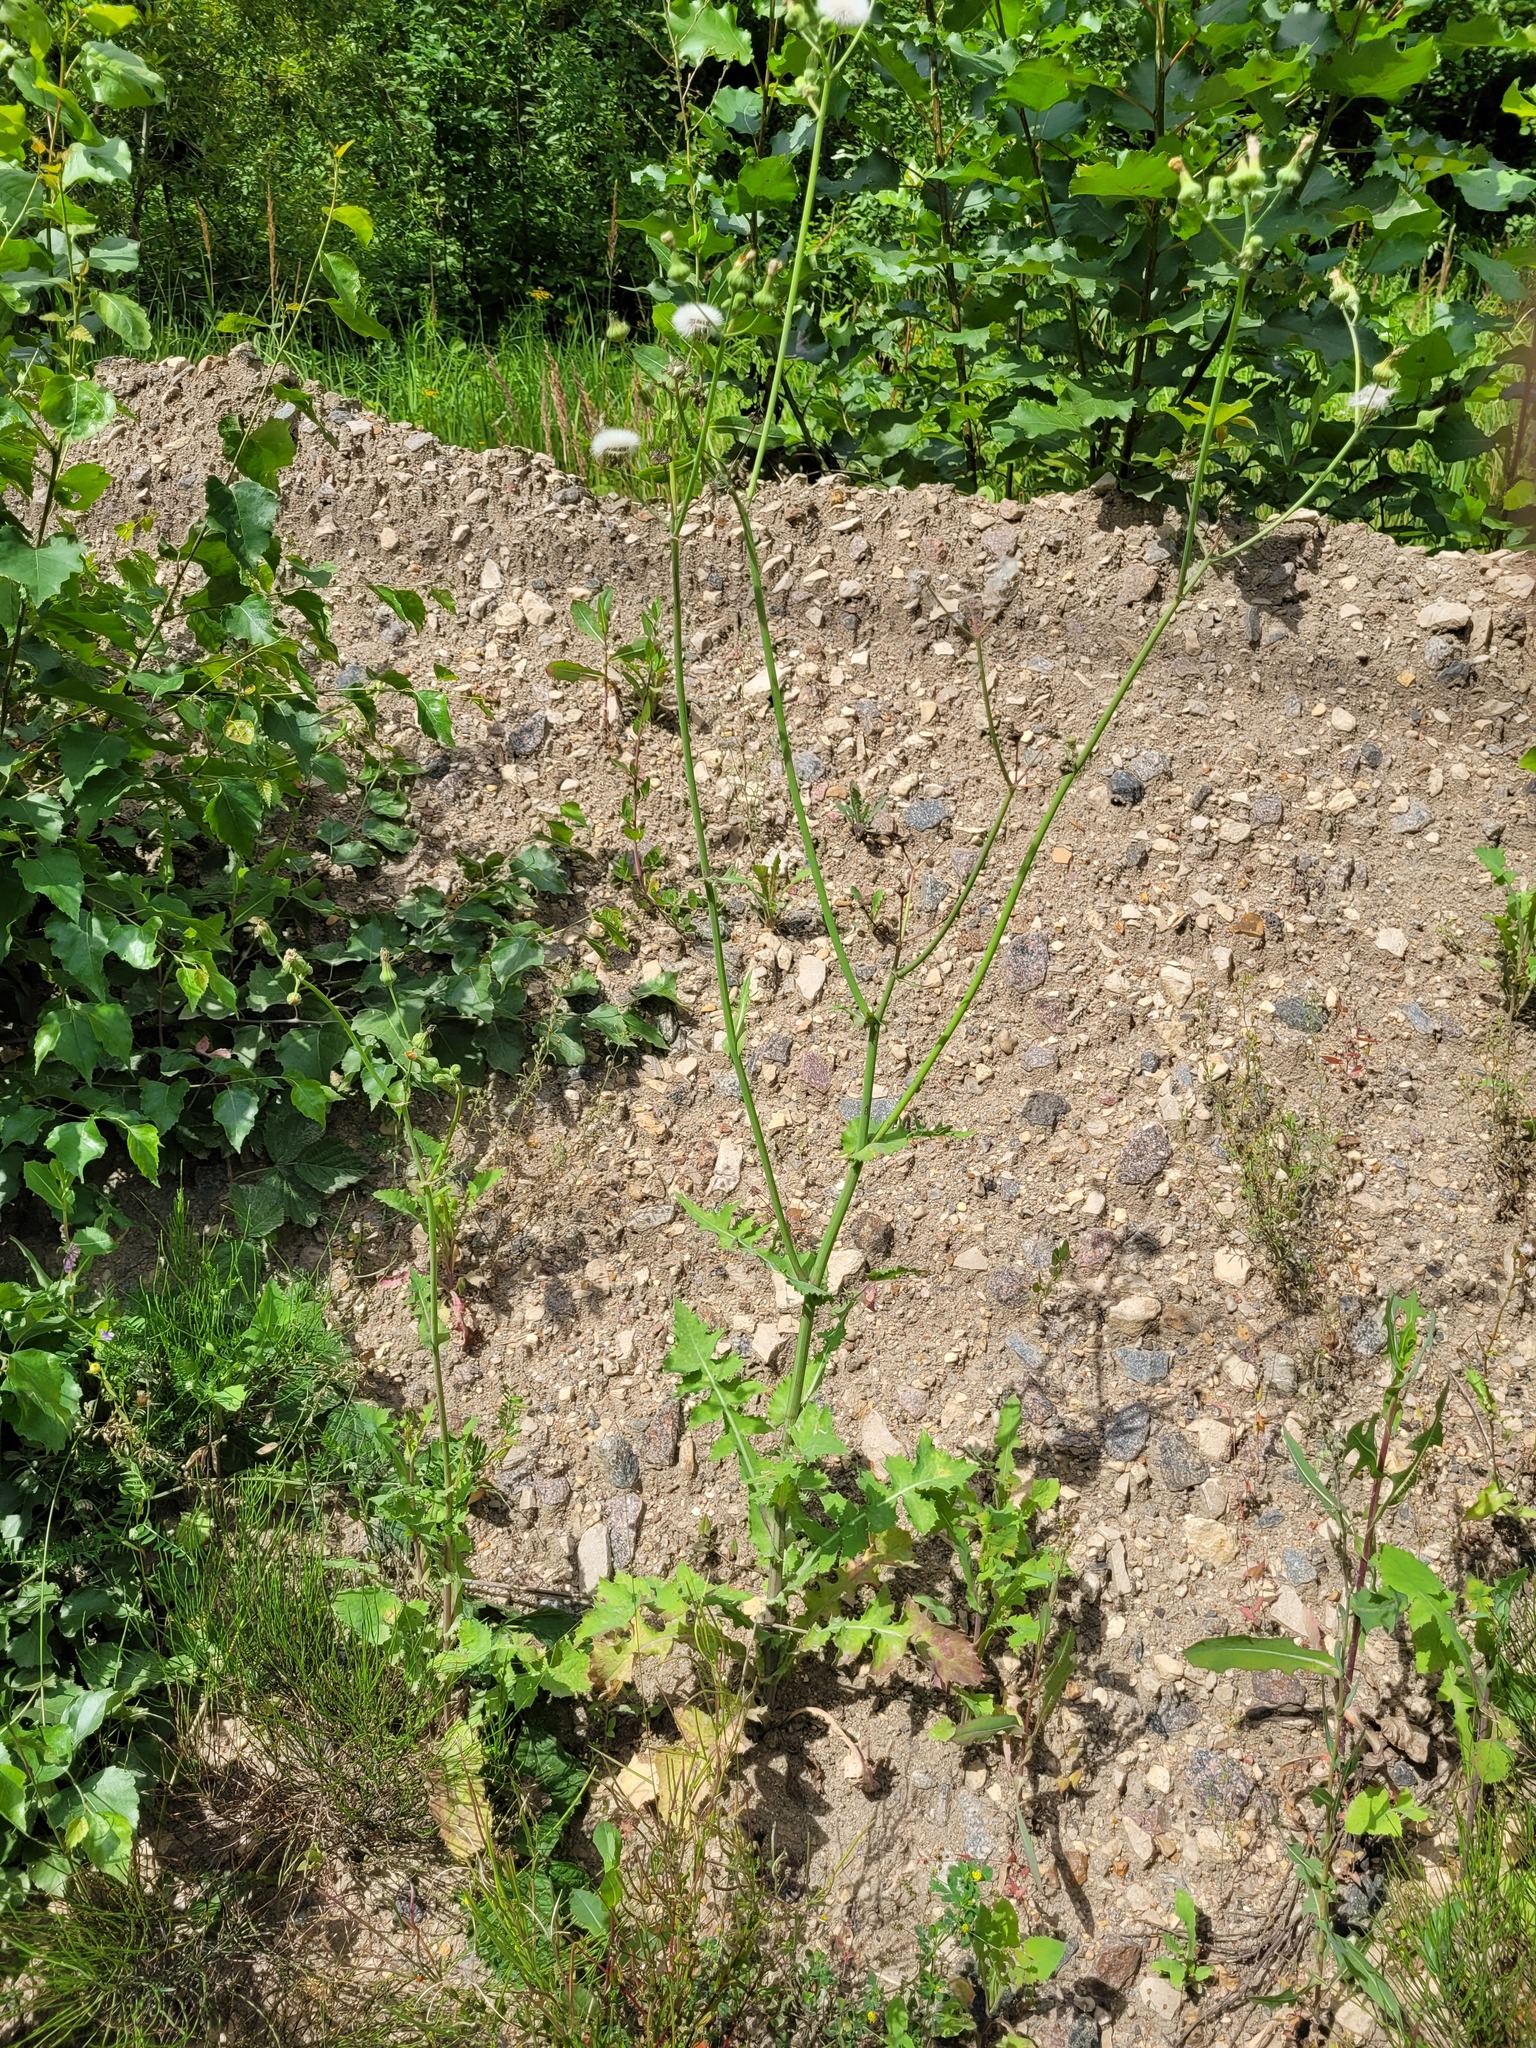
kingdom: Plantae
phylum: Tracheophyta
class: Magnoliopsida
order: Asterales
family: Asteraceae
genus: Sonchus
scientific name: Sonchus oleraceus
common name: Common sowthistle
